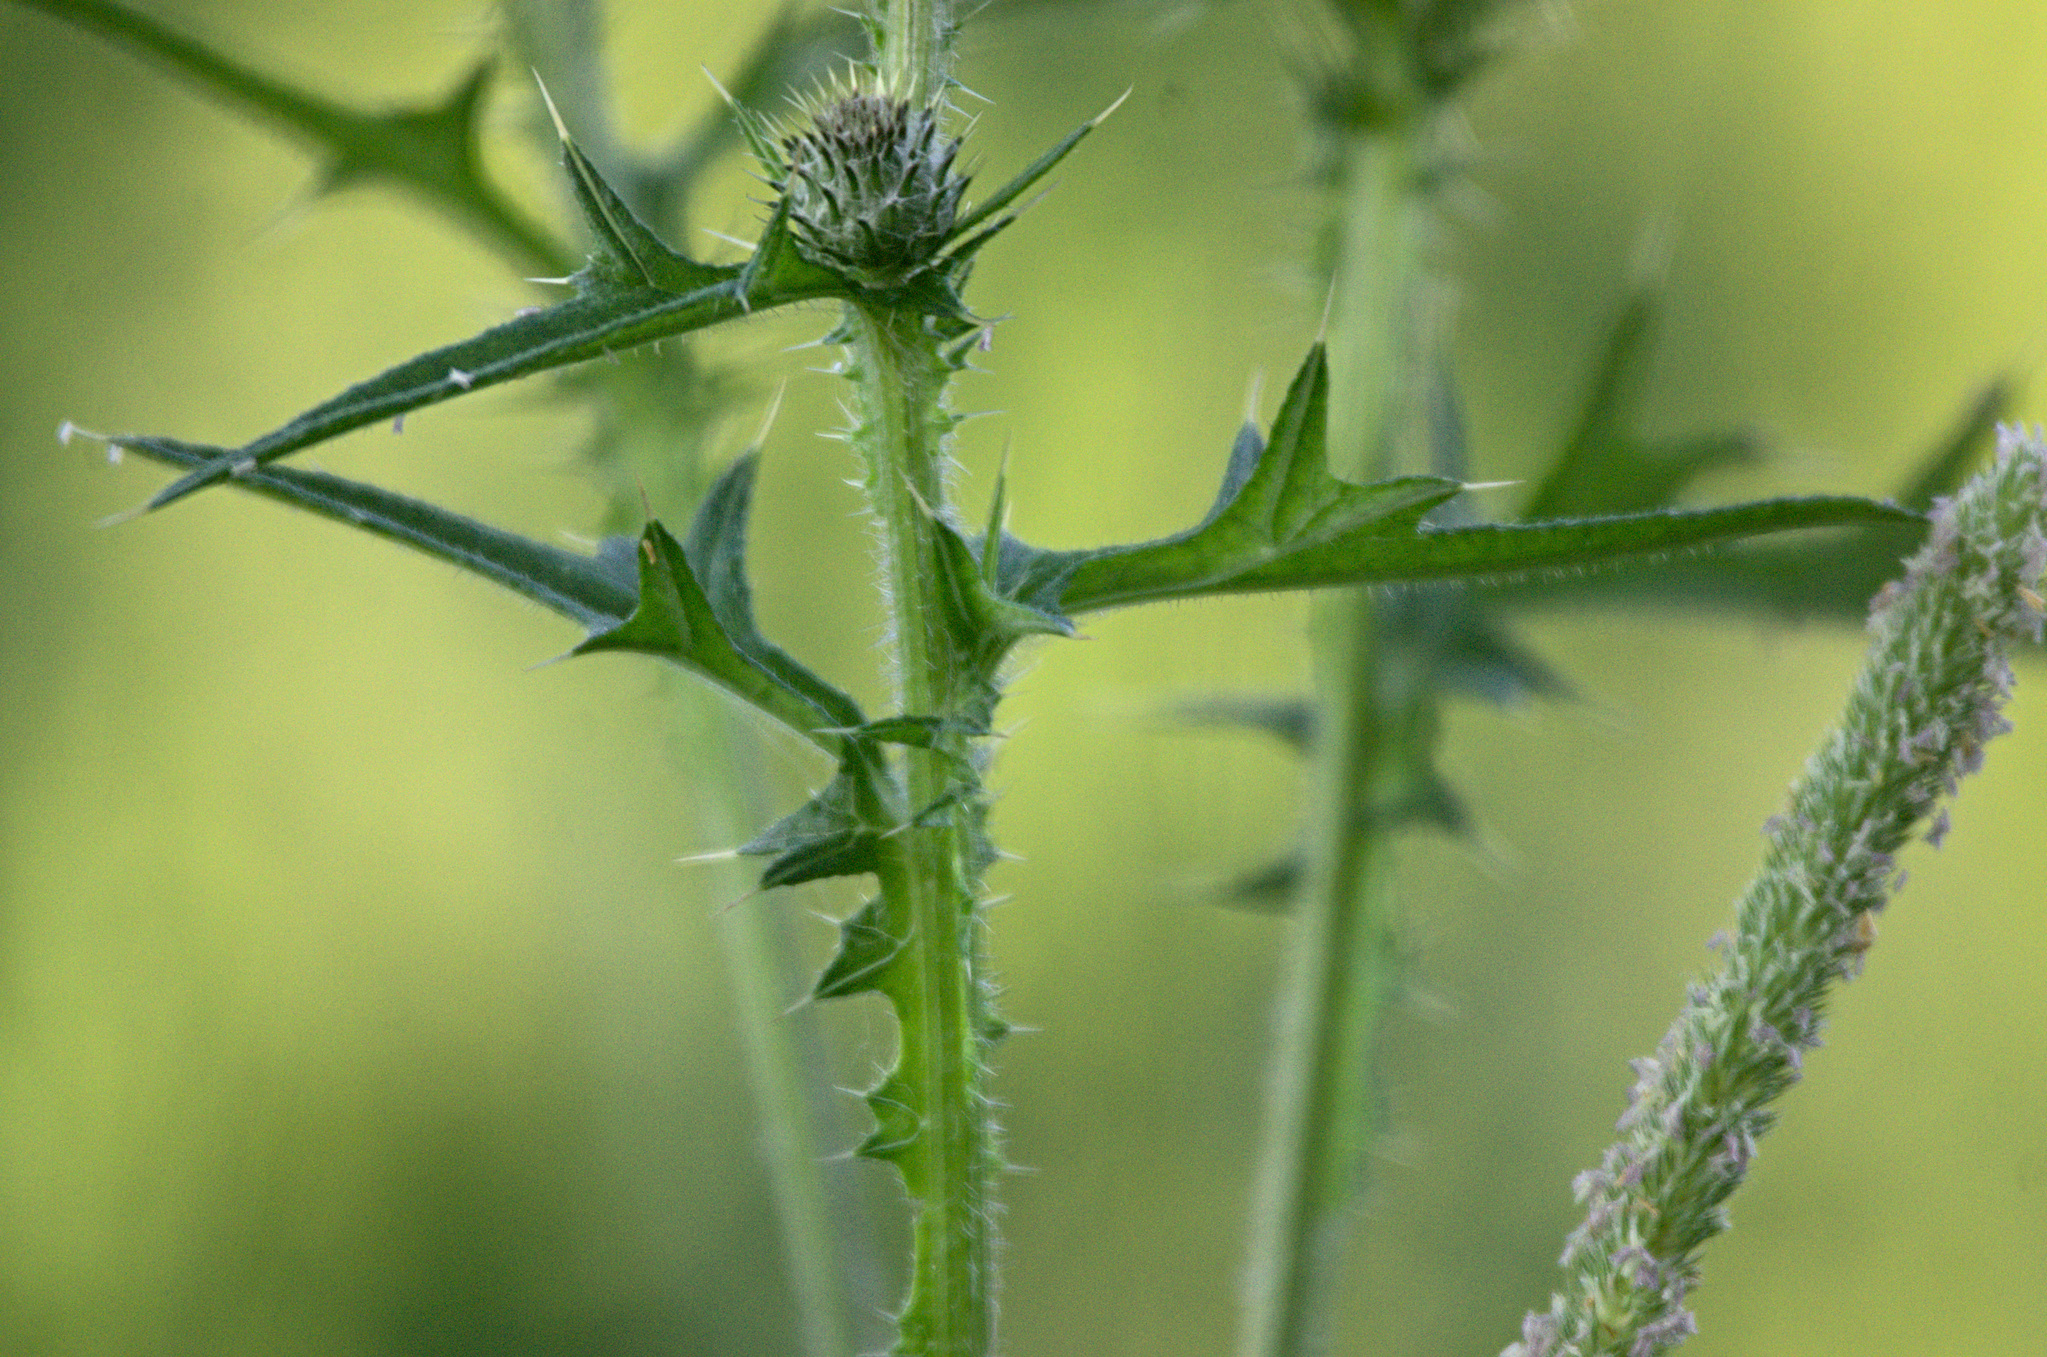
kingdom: Plantae
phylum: Tracheophyta
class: Magnoliopsida
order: Asterales
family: Asteraceae
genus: Cirsium
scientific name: Cirsium vulgare
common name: Bull thistle
